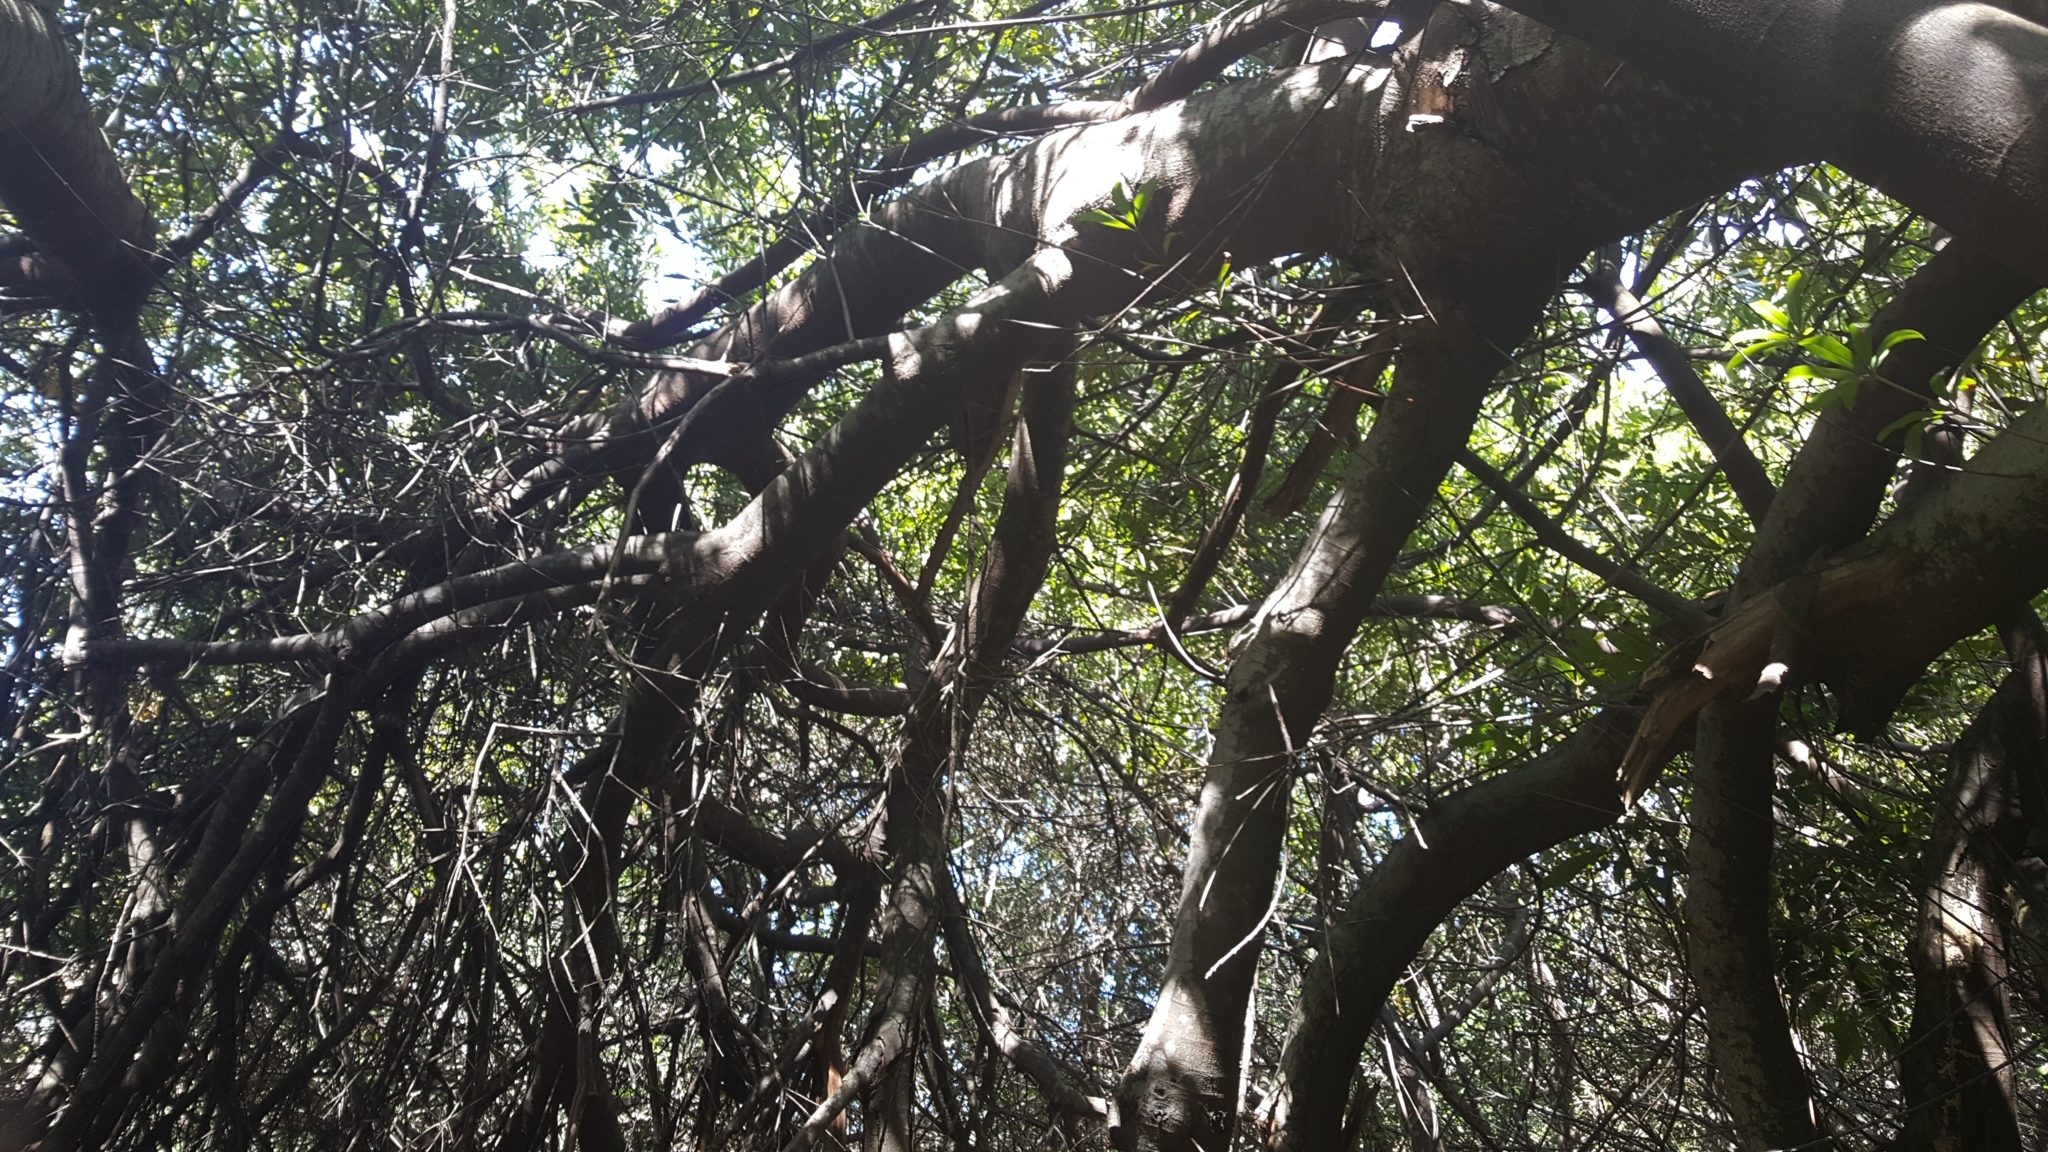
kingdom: Plantae
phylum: Tracheophyta
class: Magnoliopsida
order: Proteales
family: Proteaceae
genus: Brabejum
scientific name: Brabejum stellatifolium
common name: Wild almond
